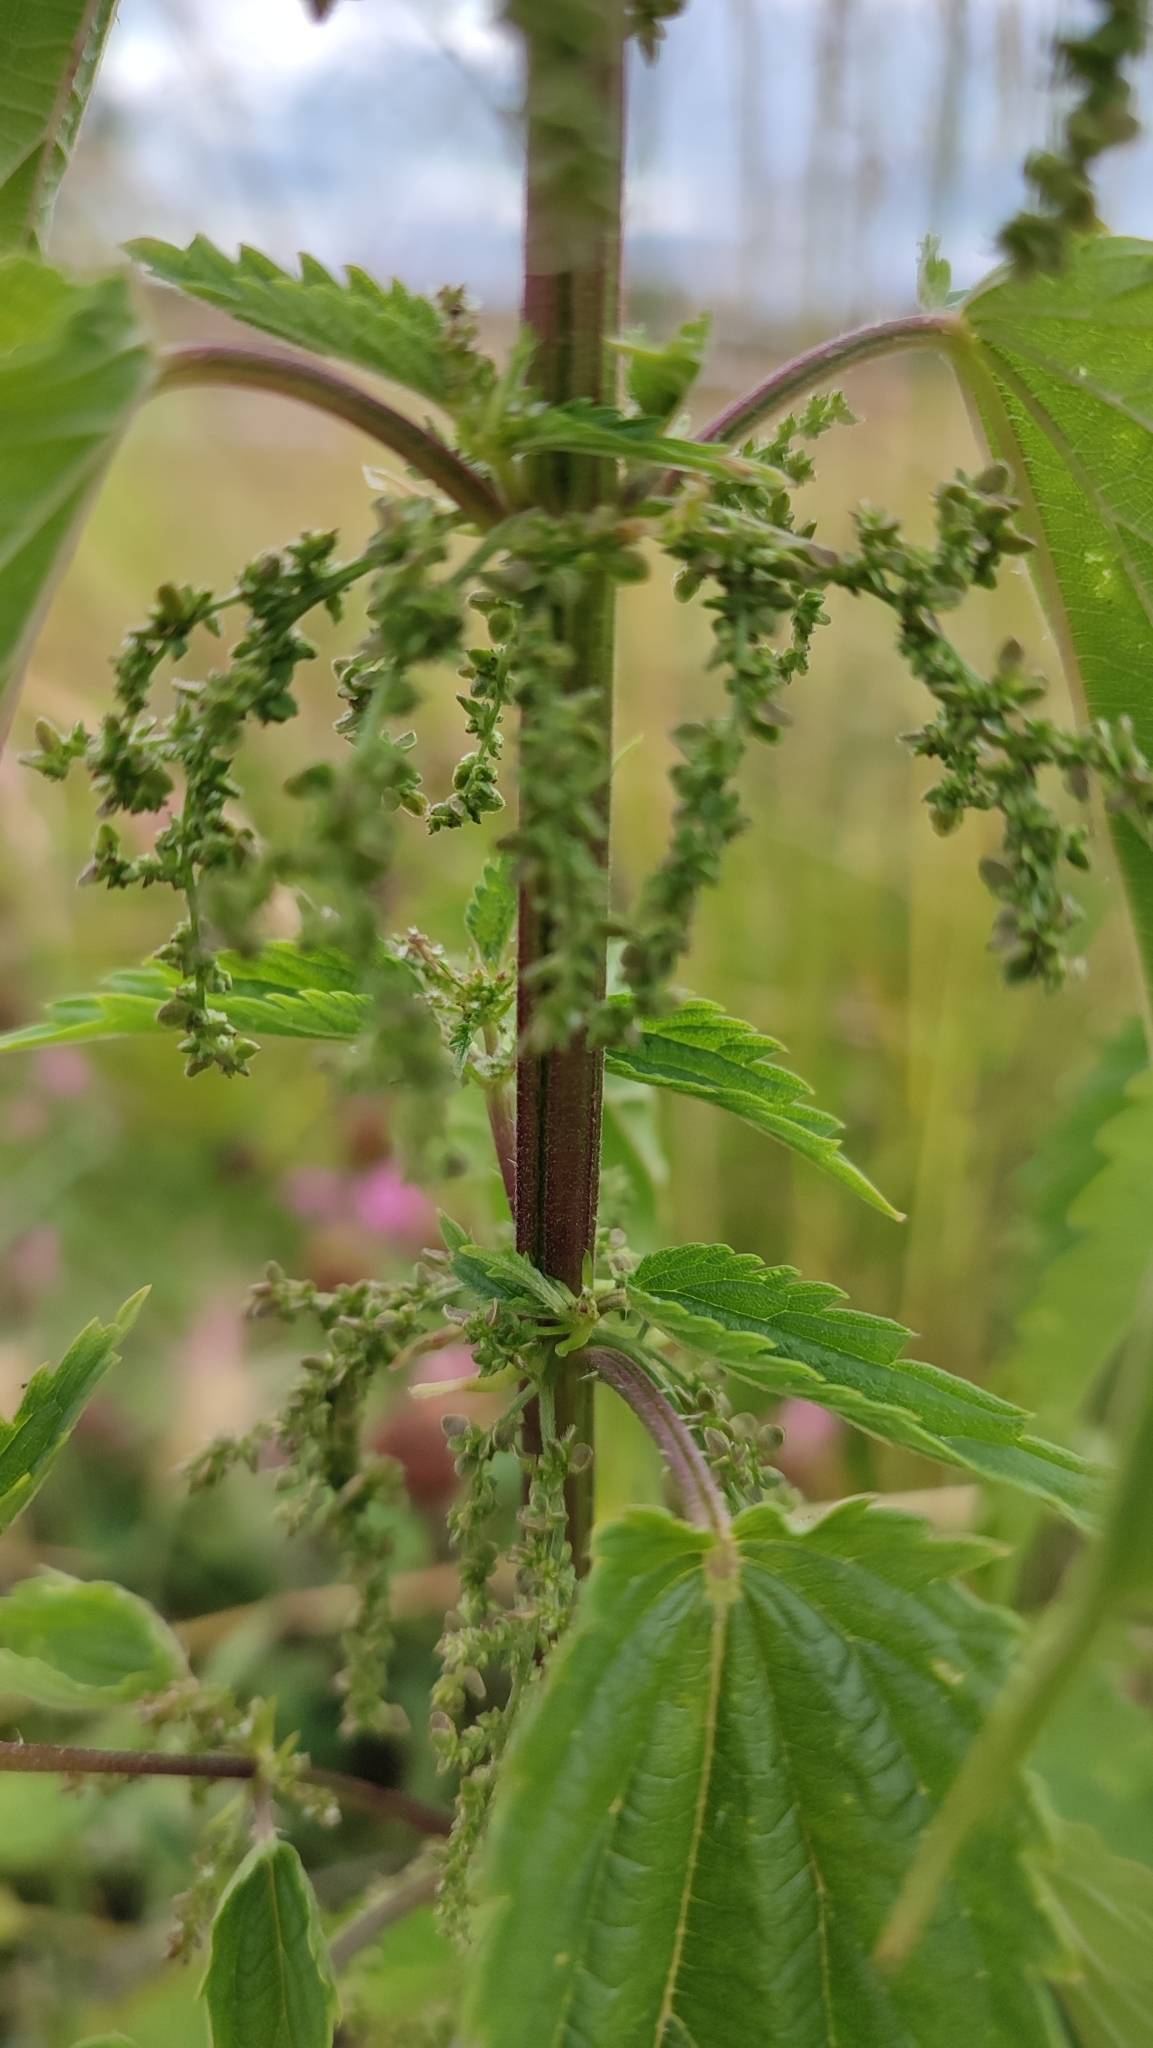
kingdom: Plantae
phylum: Tracheophyta
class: Magnoliopsida
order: Rosales
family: Urticaceae
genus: Urtica
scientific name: Urtica dioica
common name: Common nettle
